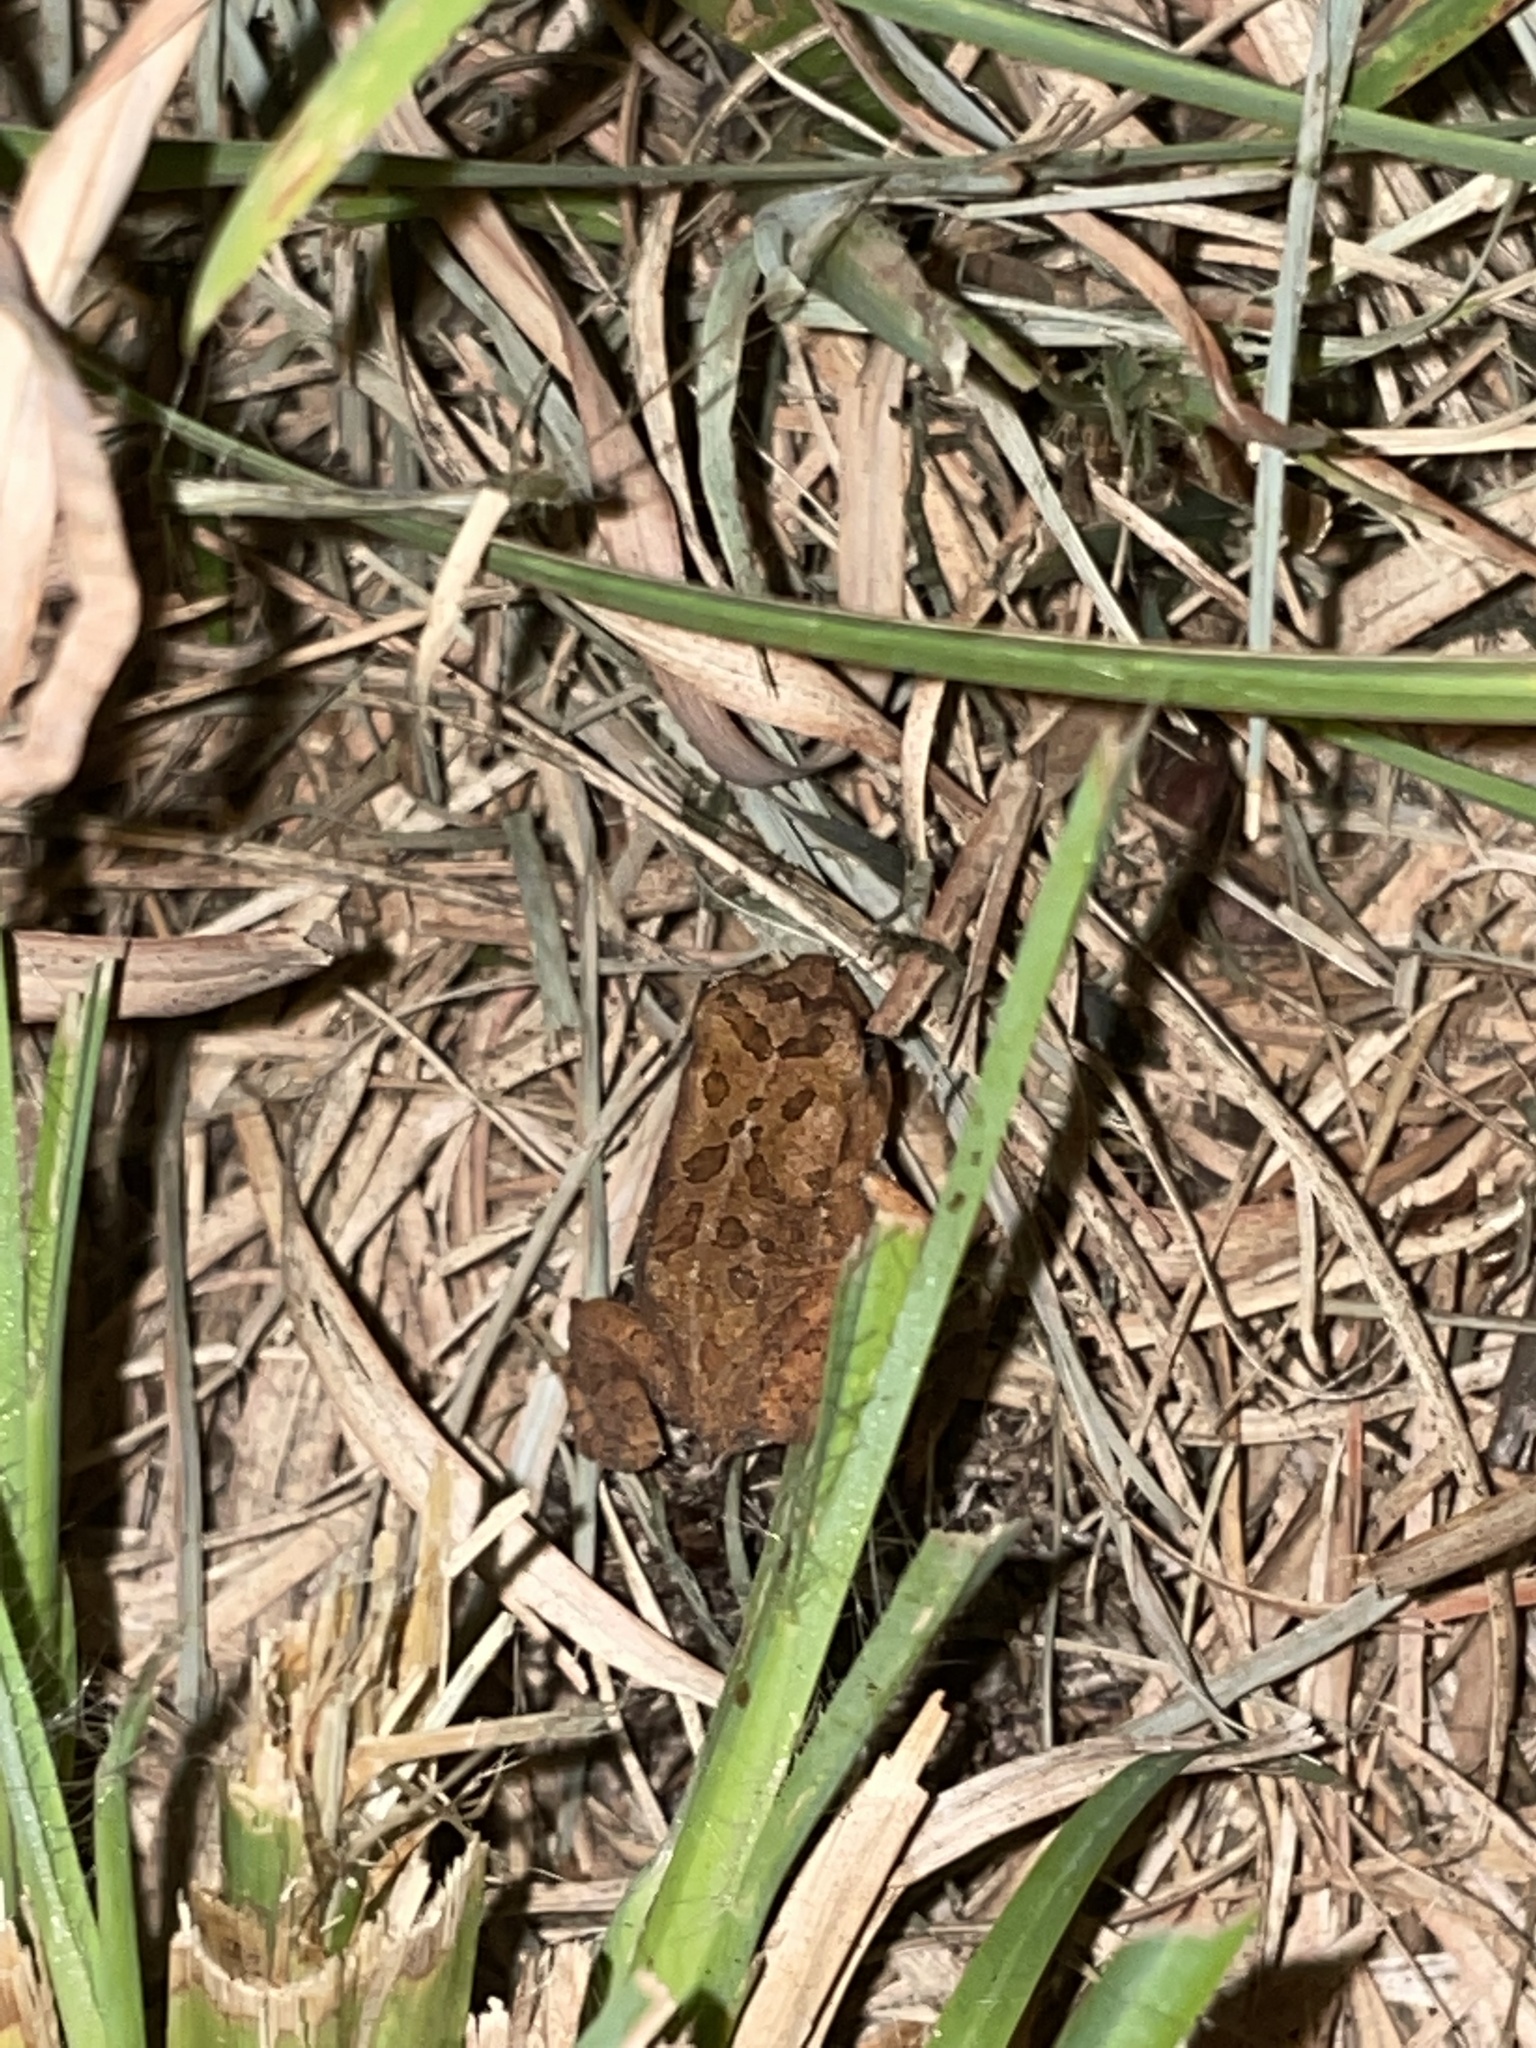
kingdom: Animalia
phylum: Chordata
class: Amphibia
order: Anura
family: Bufonidae
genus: Anaxyrus
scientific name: Anaxyrus fowleri
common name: Fowler's toad
